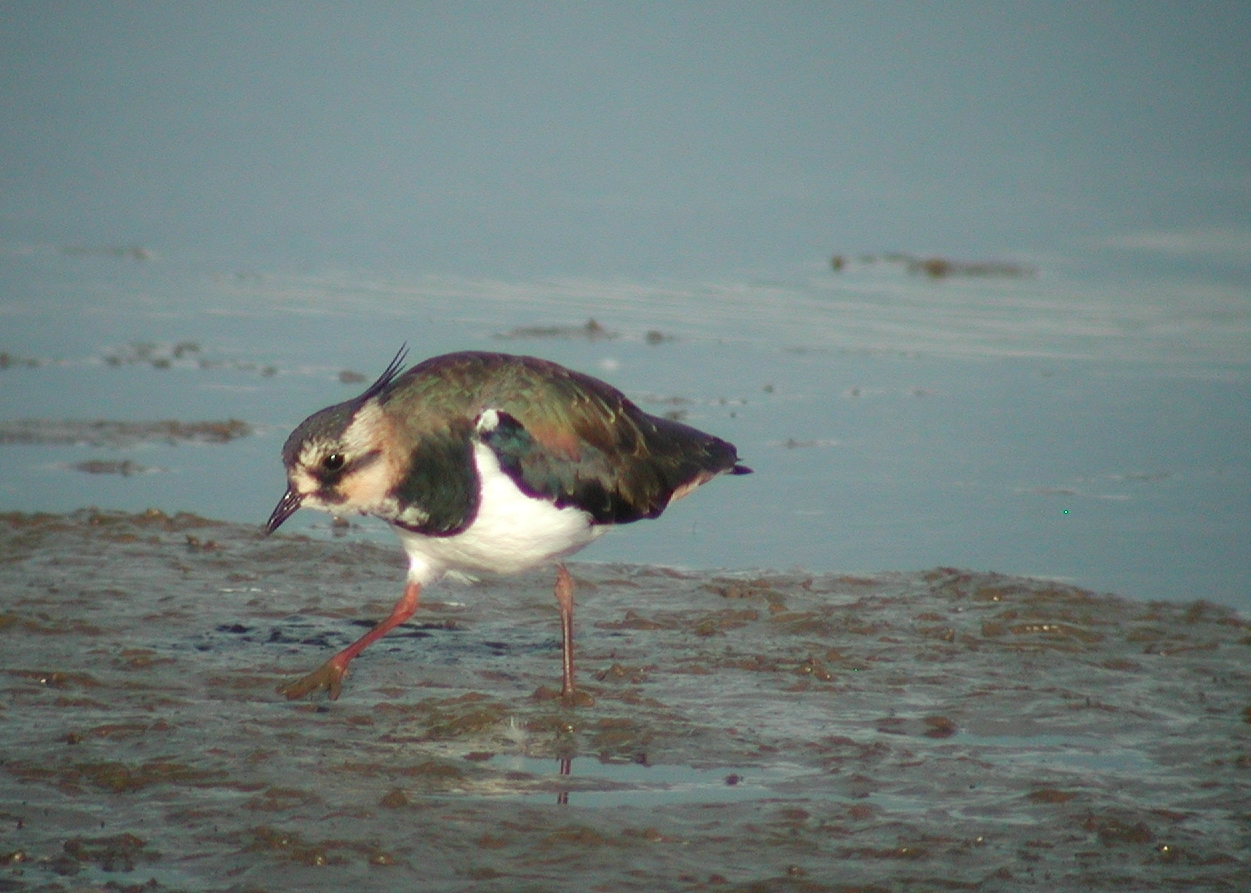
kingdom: Animalia
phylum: Chordata
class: Aves
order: Charadriiformes
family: Charadriidae
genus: Vanellus
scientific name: Vanellus vanellus
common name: Northern lapwing
